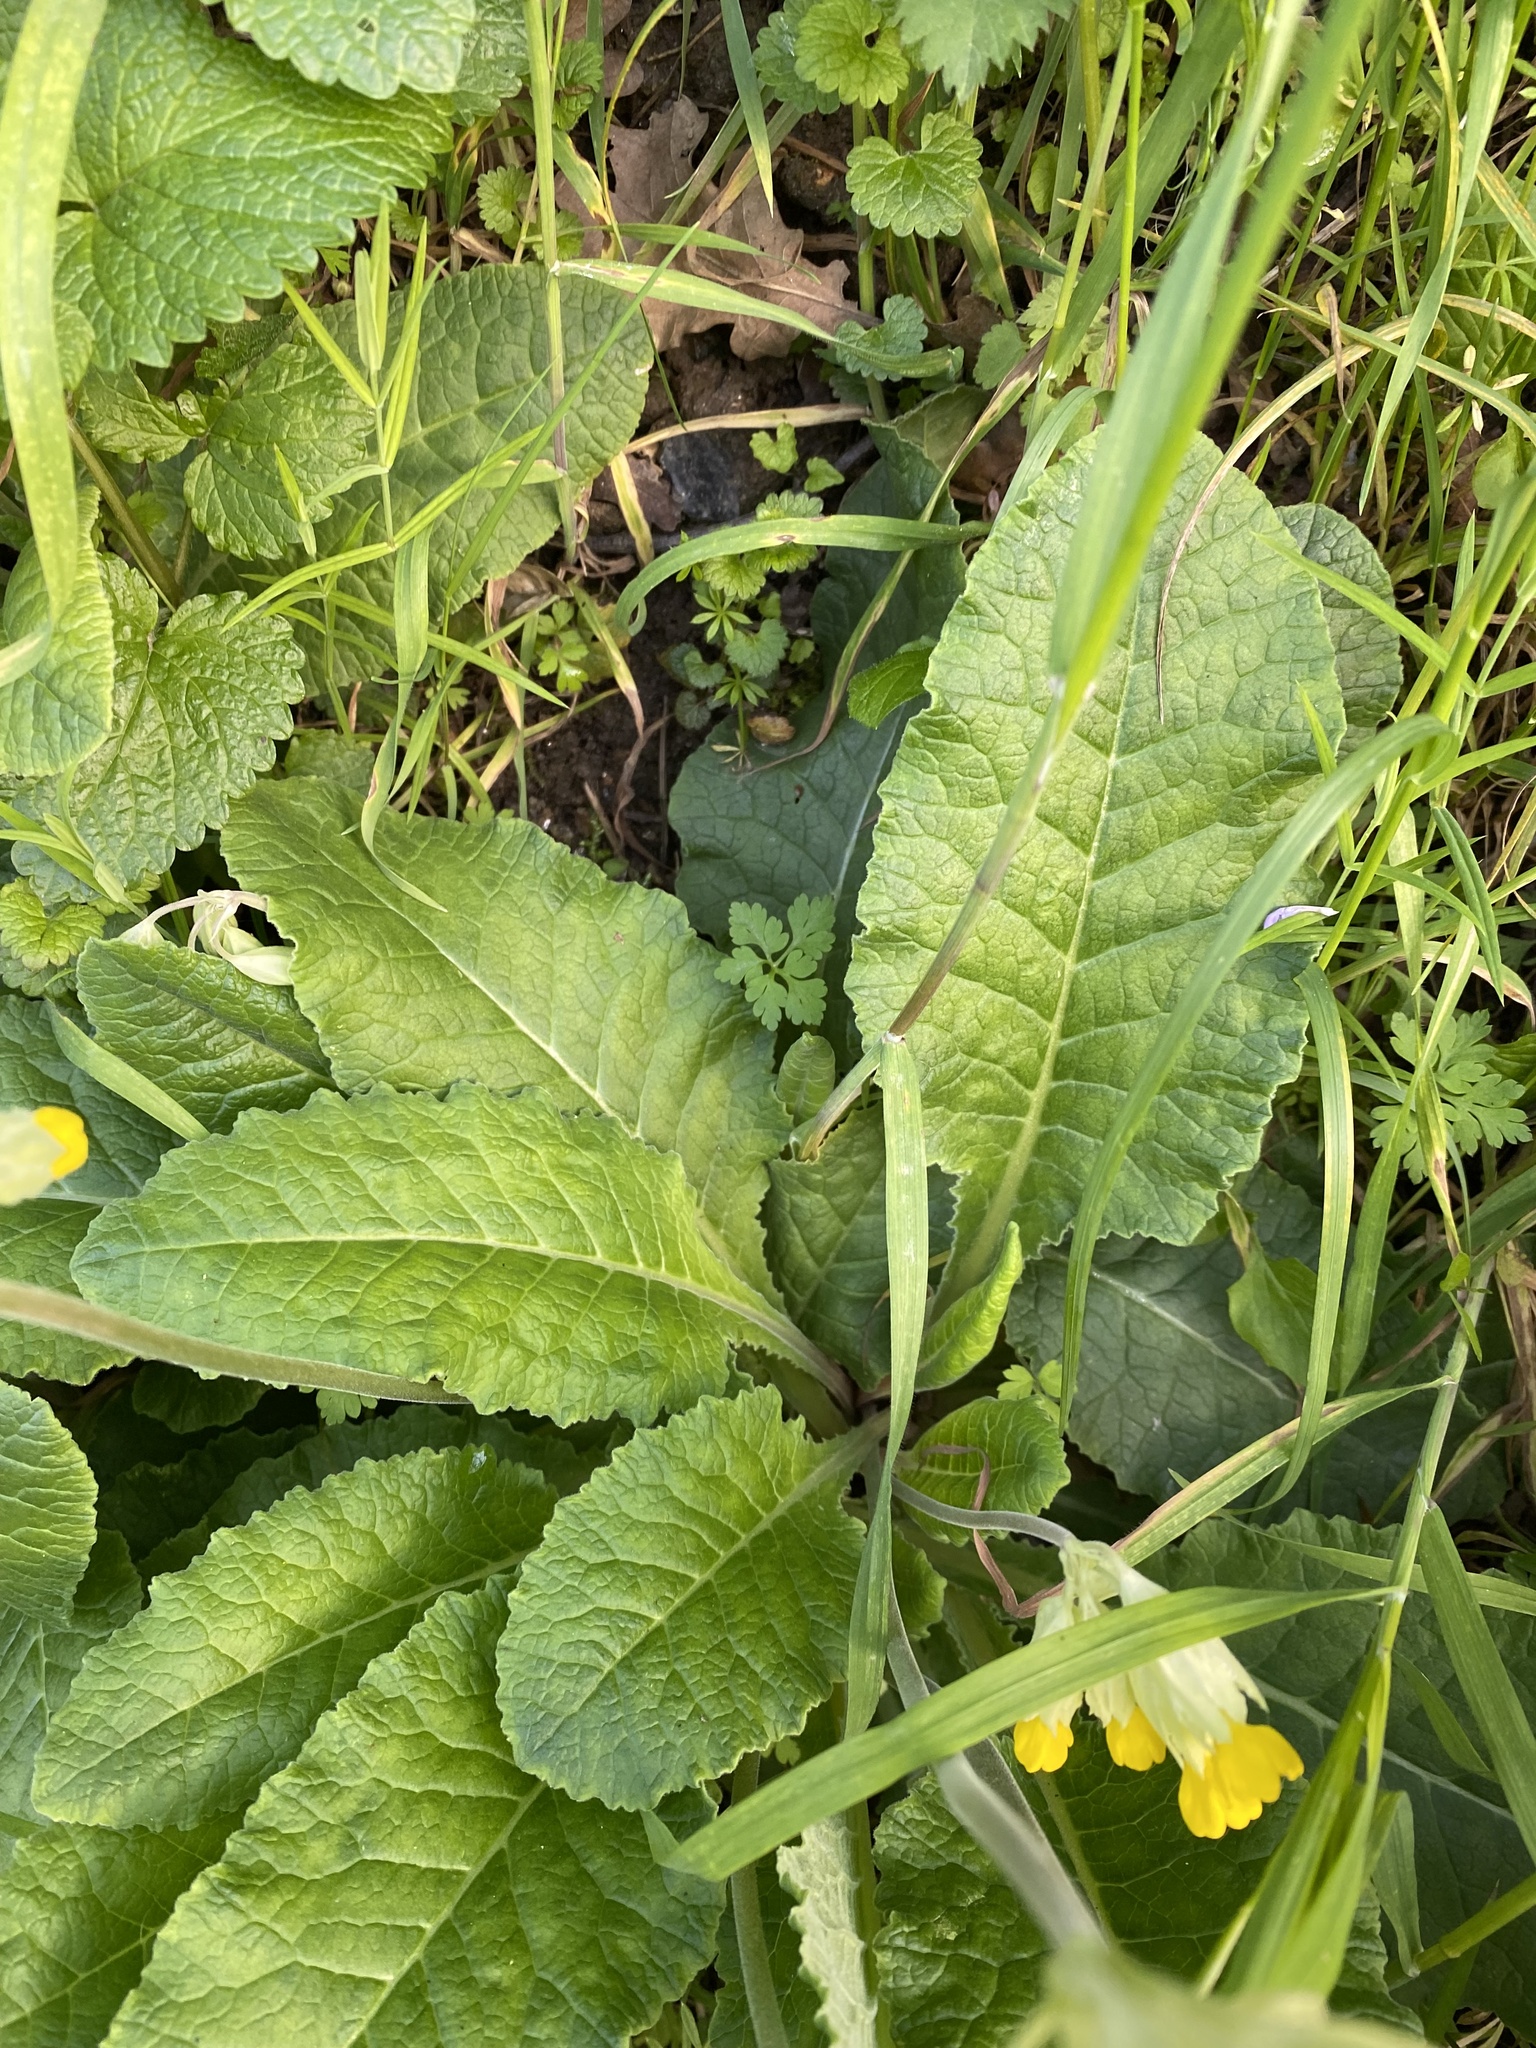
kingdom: Plantae
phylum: Tracheophyta
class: Magnoliopsida
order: Ericales
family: Primulaceae
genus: Primula
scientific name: Primula veris
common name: Cowslip
